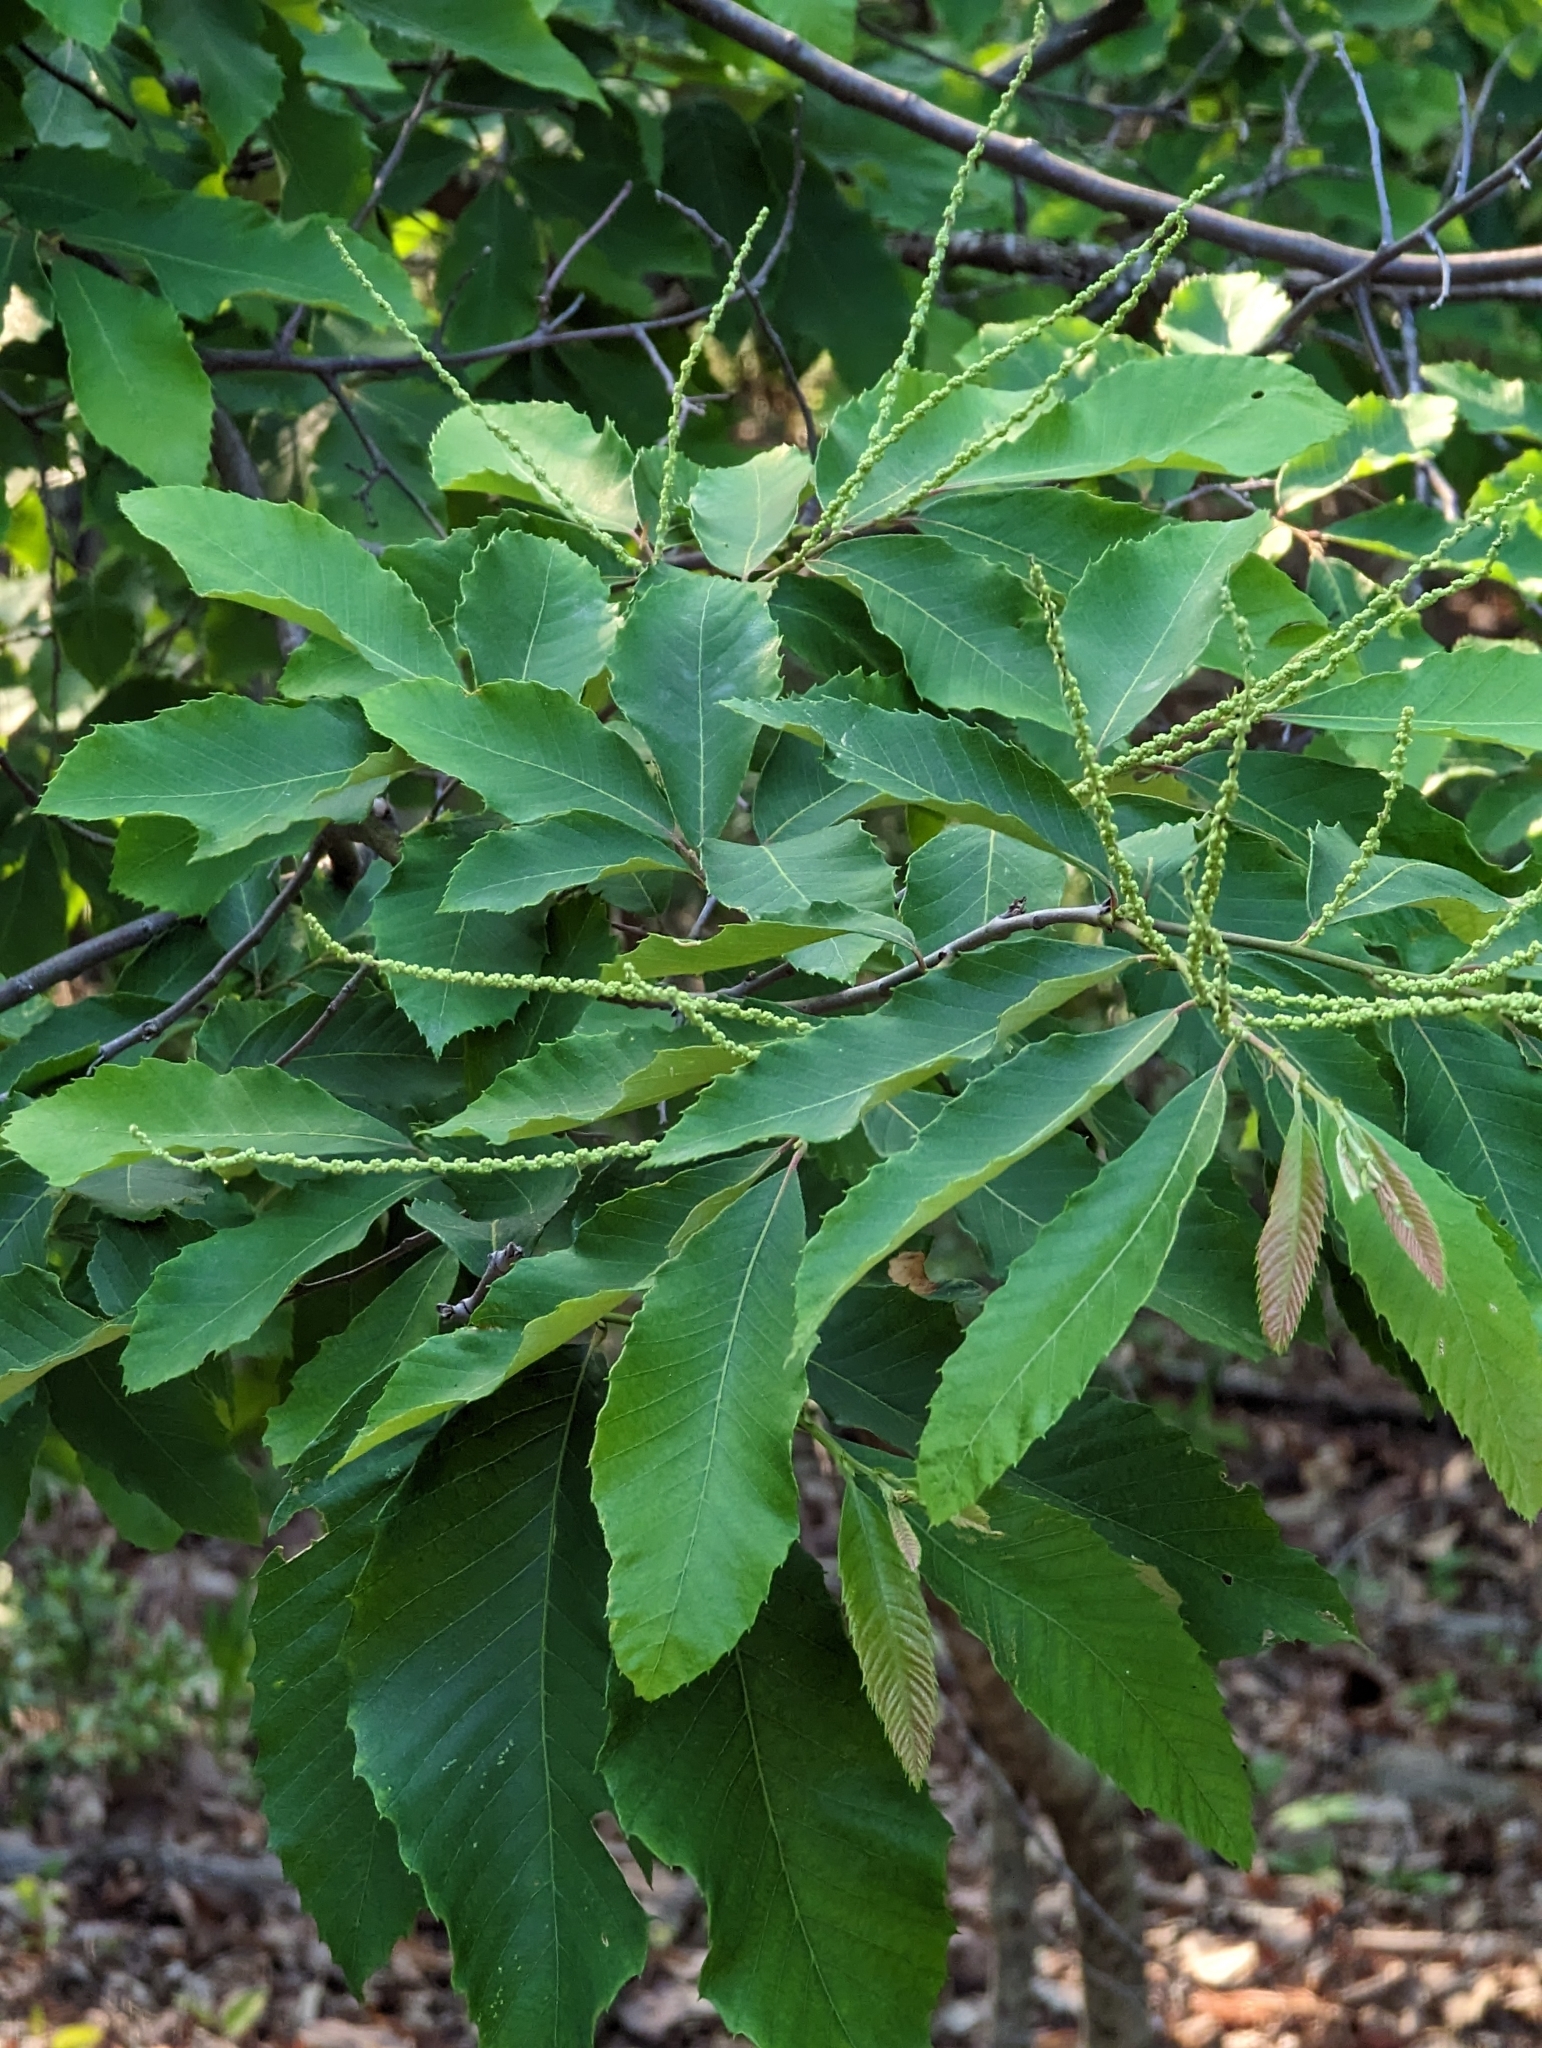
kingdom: Plantae
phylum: Tracheophyta
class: Magnoliopsida
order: Fagales
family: Fagaceae
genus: Castanea
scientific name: Castanea pumila
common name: Chinkapin
